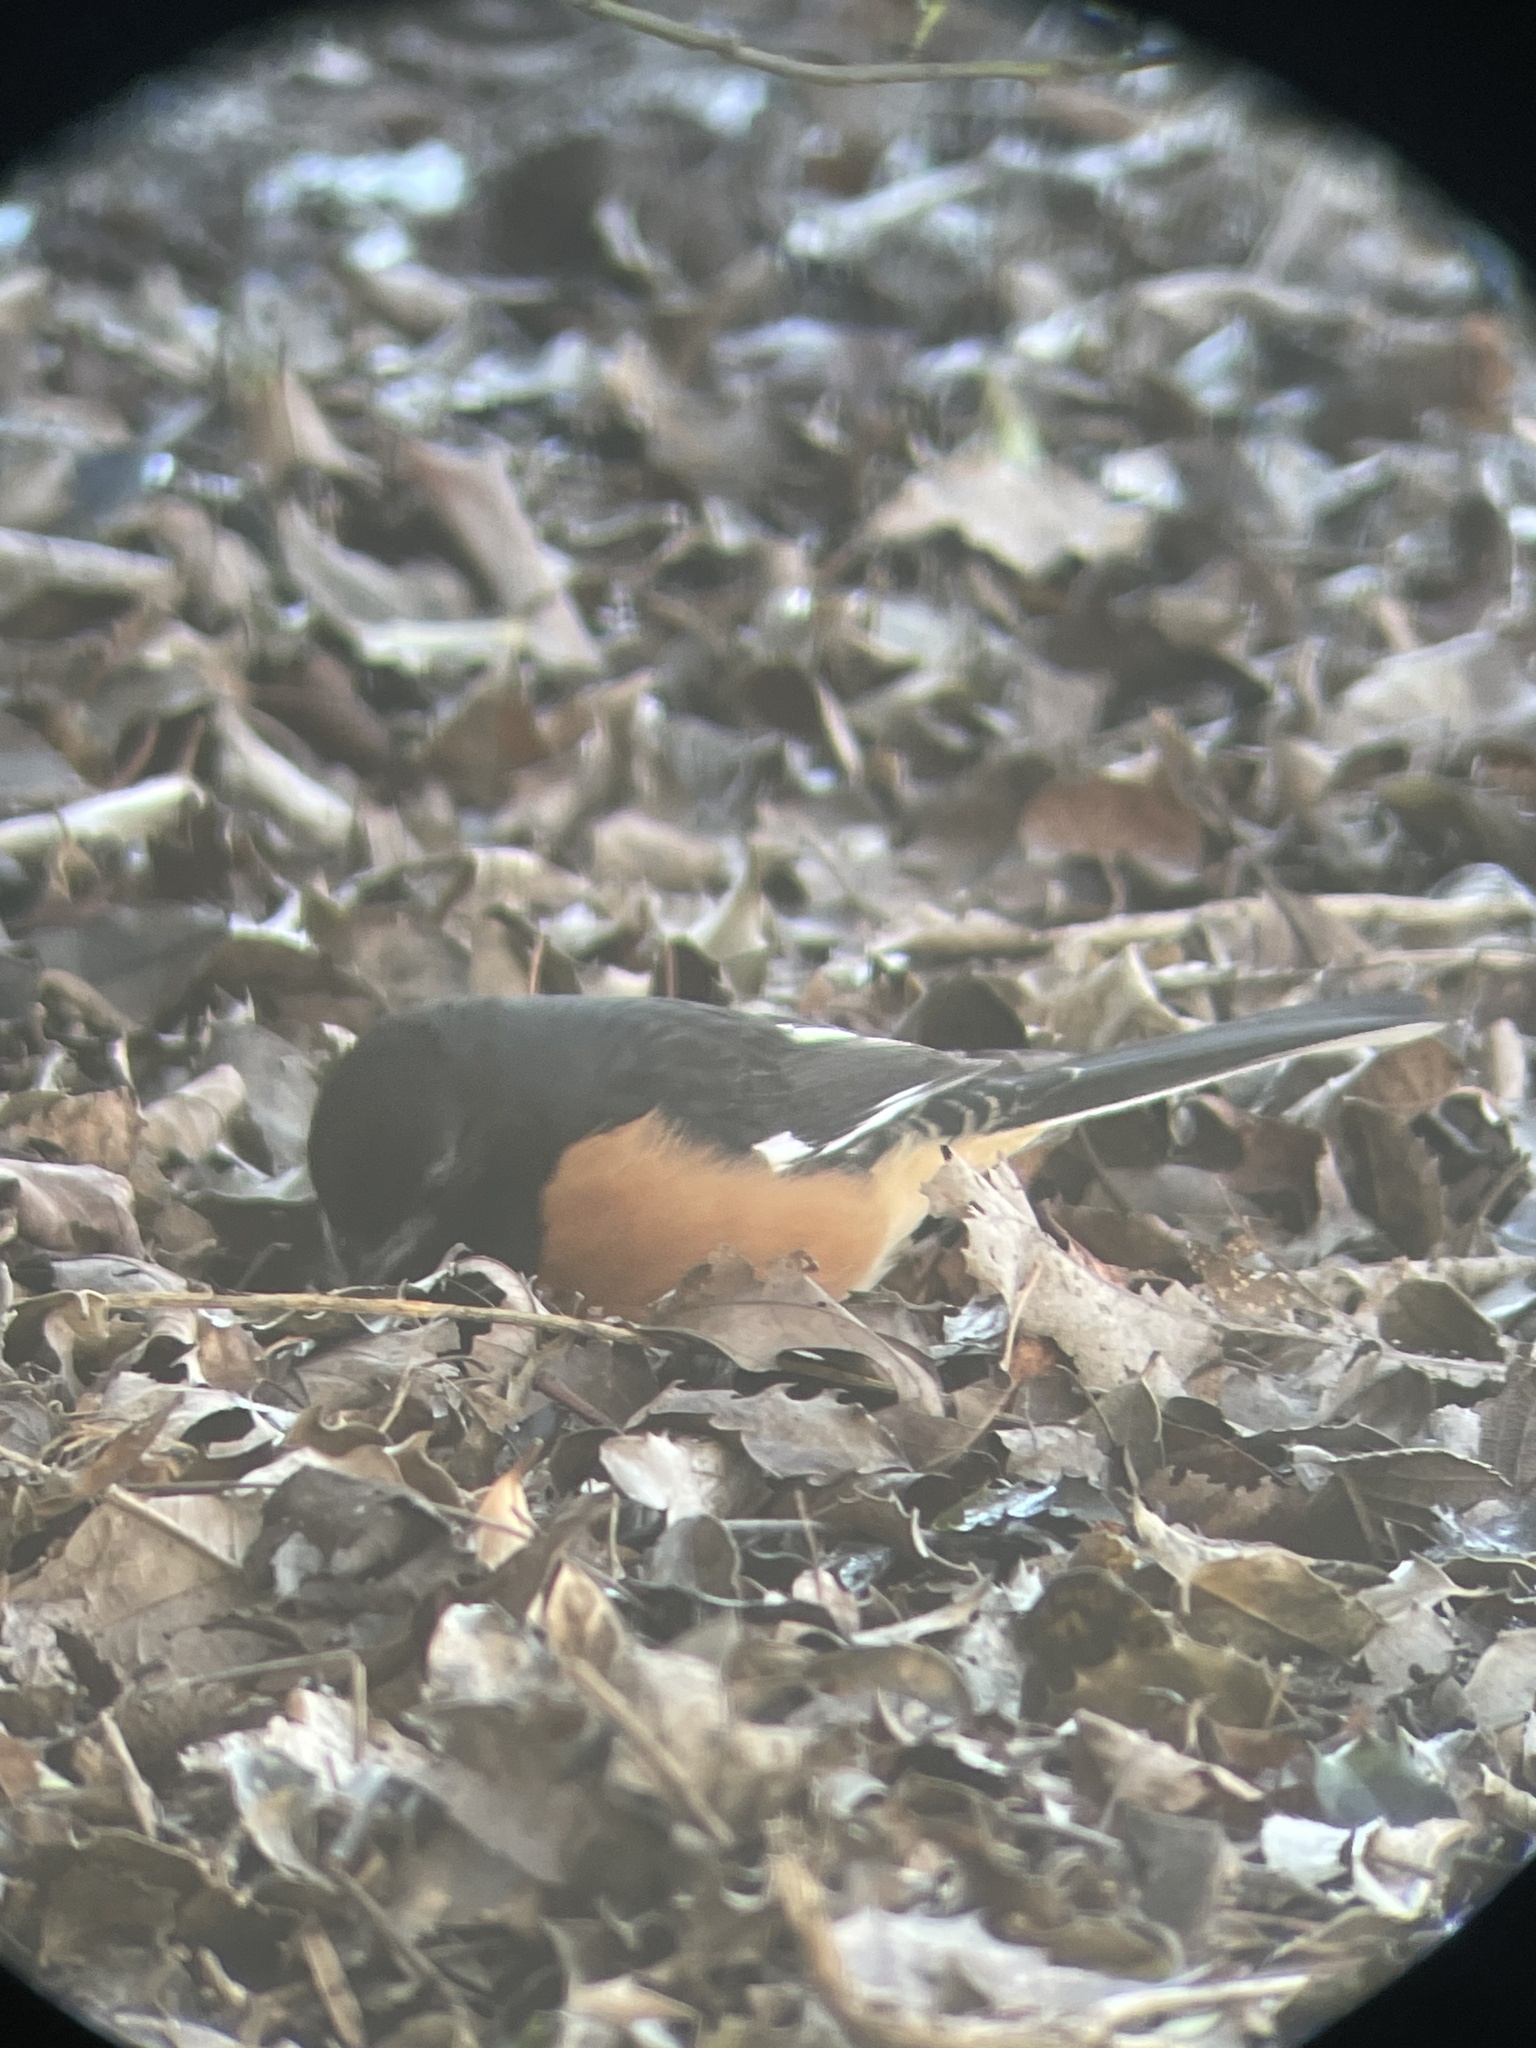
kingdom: Animalia
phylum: Chordata
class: Aves
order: Passeriformes
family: Passerellidae
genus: Pipilo
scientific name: Pipilo erythrophthalmus
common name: Eastern towhee
